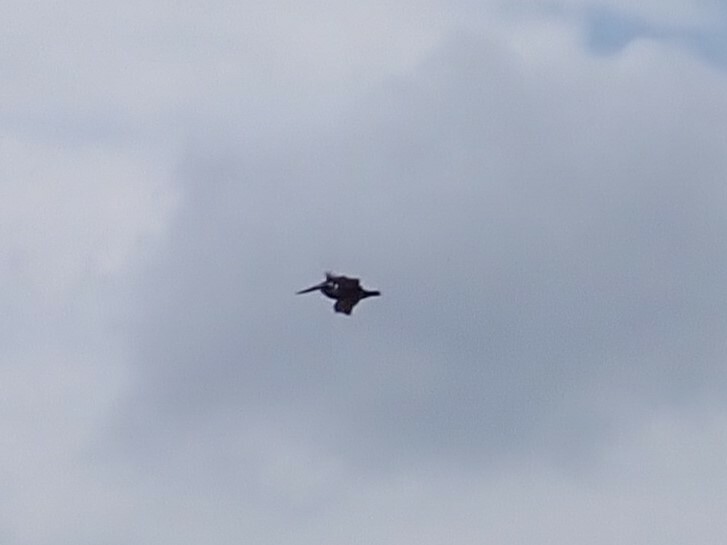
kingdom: Animalia
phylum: Chordata
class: Aves
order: Pelecaniformes
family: Pelecanidae
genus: Pelecanus
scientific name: Pelecanus occidentalis
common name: Brown pelican
